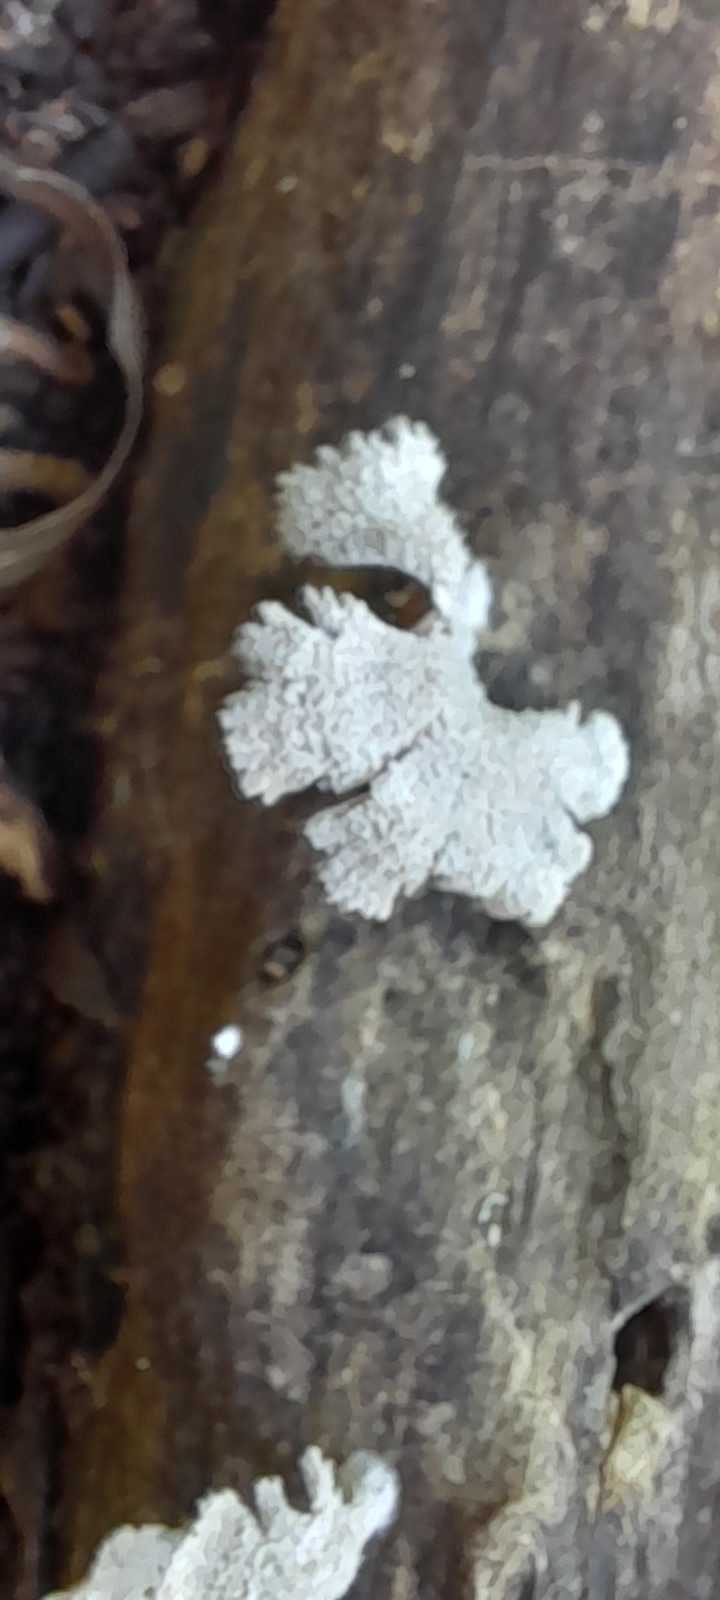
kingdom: Fungi
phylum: Basidiomycota
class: Agaricomycetes
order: Agaricales
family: Schizophyllaceae
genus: Schizophyllum
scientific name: Schizophyllum commune
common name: Common porecrust
